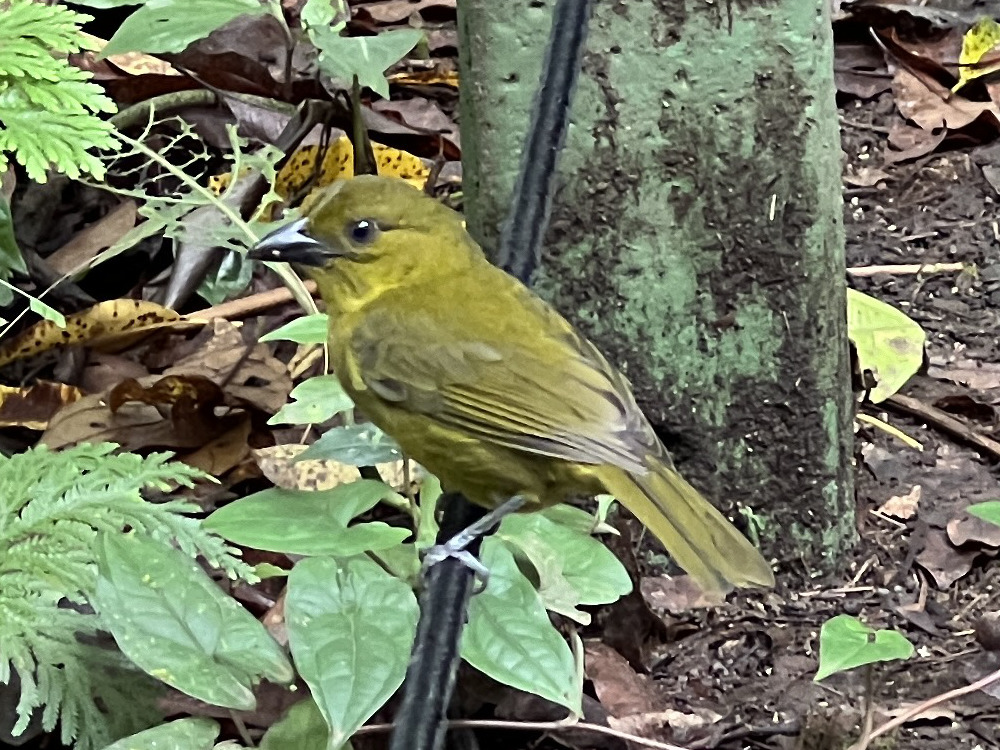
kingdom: Animalia
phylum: Chordata
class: Aves
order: Passeriformes
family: Cardinalidae
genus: Chlorothraupis
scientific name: Chlorothraupis carmioli
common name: Carmiol's tanager
